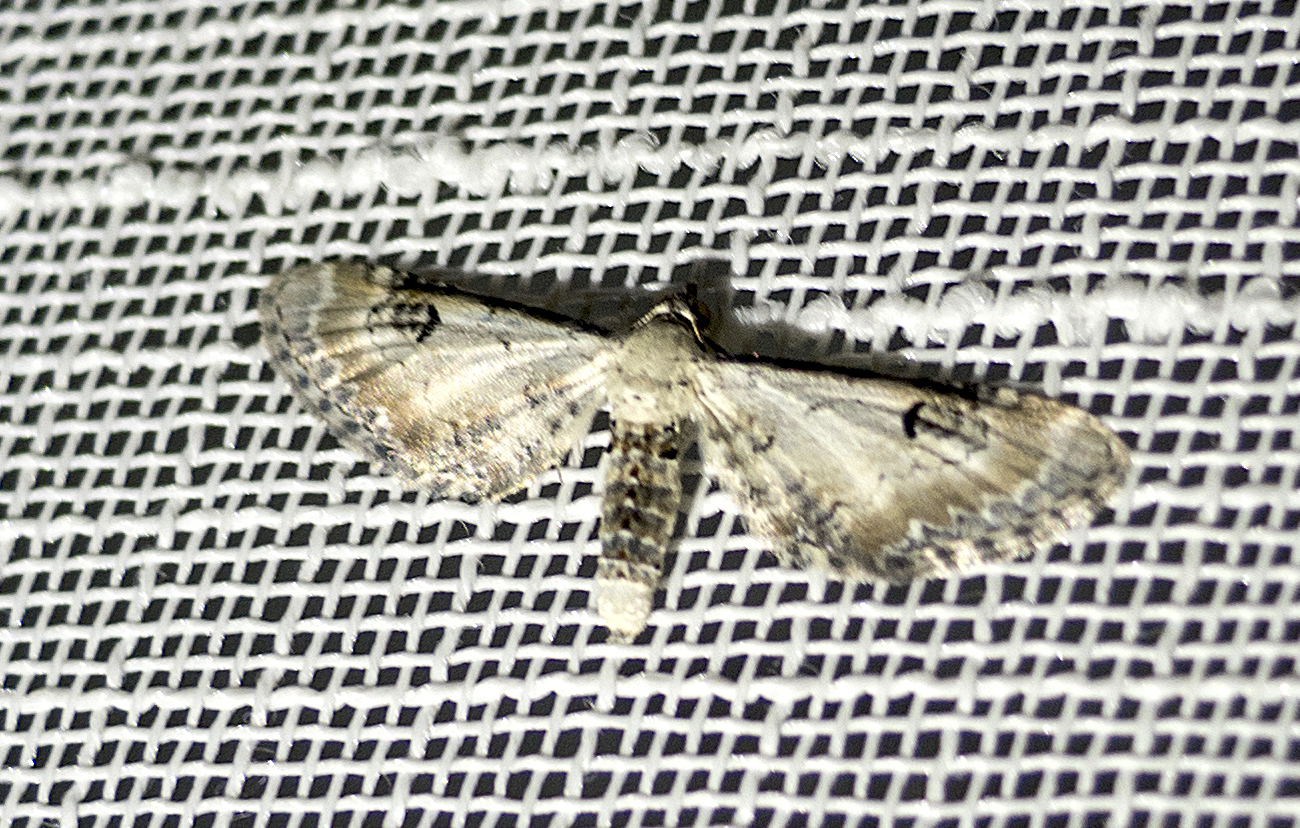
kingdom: Animalia
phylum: Arthropoda
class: Insecta
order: Lepidoptera
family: Geometridae
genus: Eupithecia
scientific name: Eupithecia centaureata
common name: Lime-speck pug
